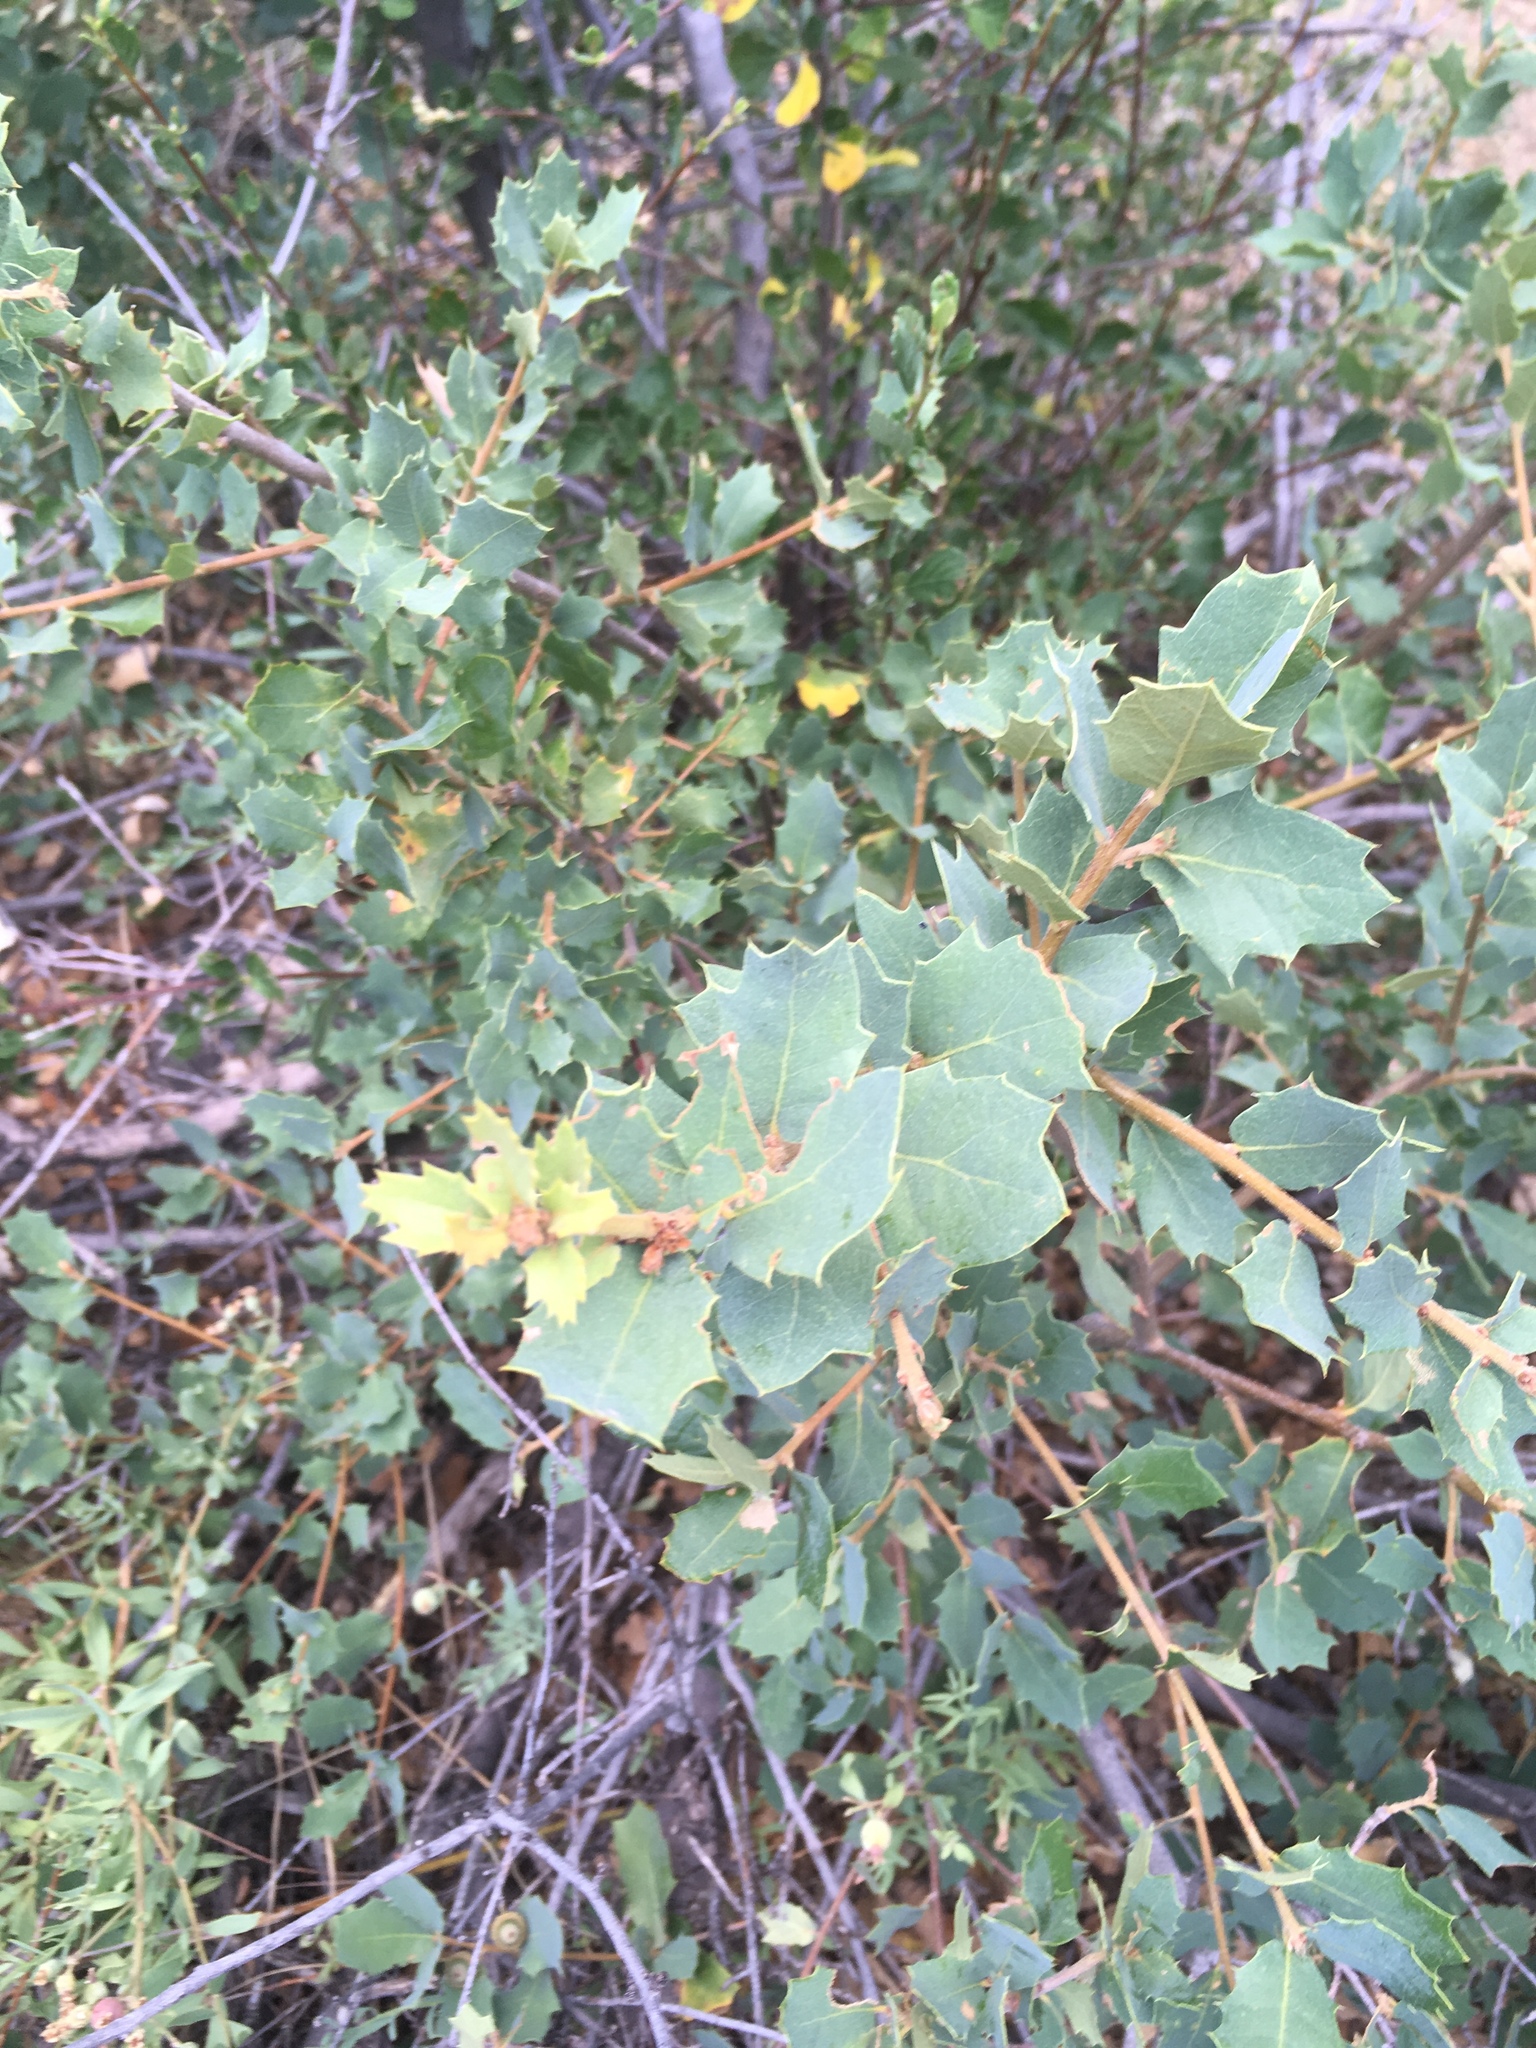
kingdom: Plantae
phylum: Tracheophyta
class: Magnoliopsida
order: Fagales
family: Fagaceae
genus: Quercus
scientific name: Quercus turbinella
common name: Sonoran scrub oak
